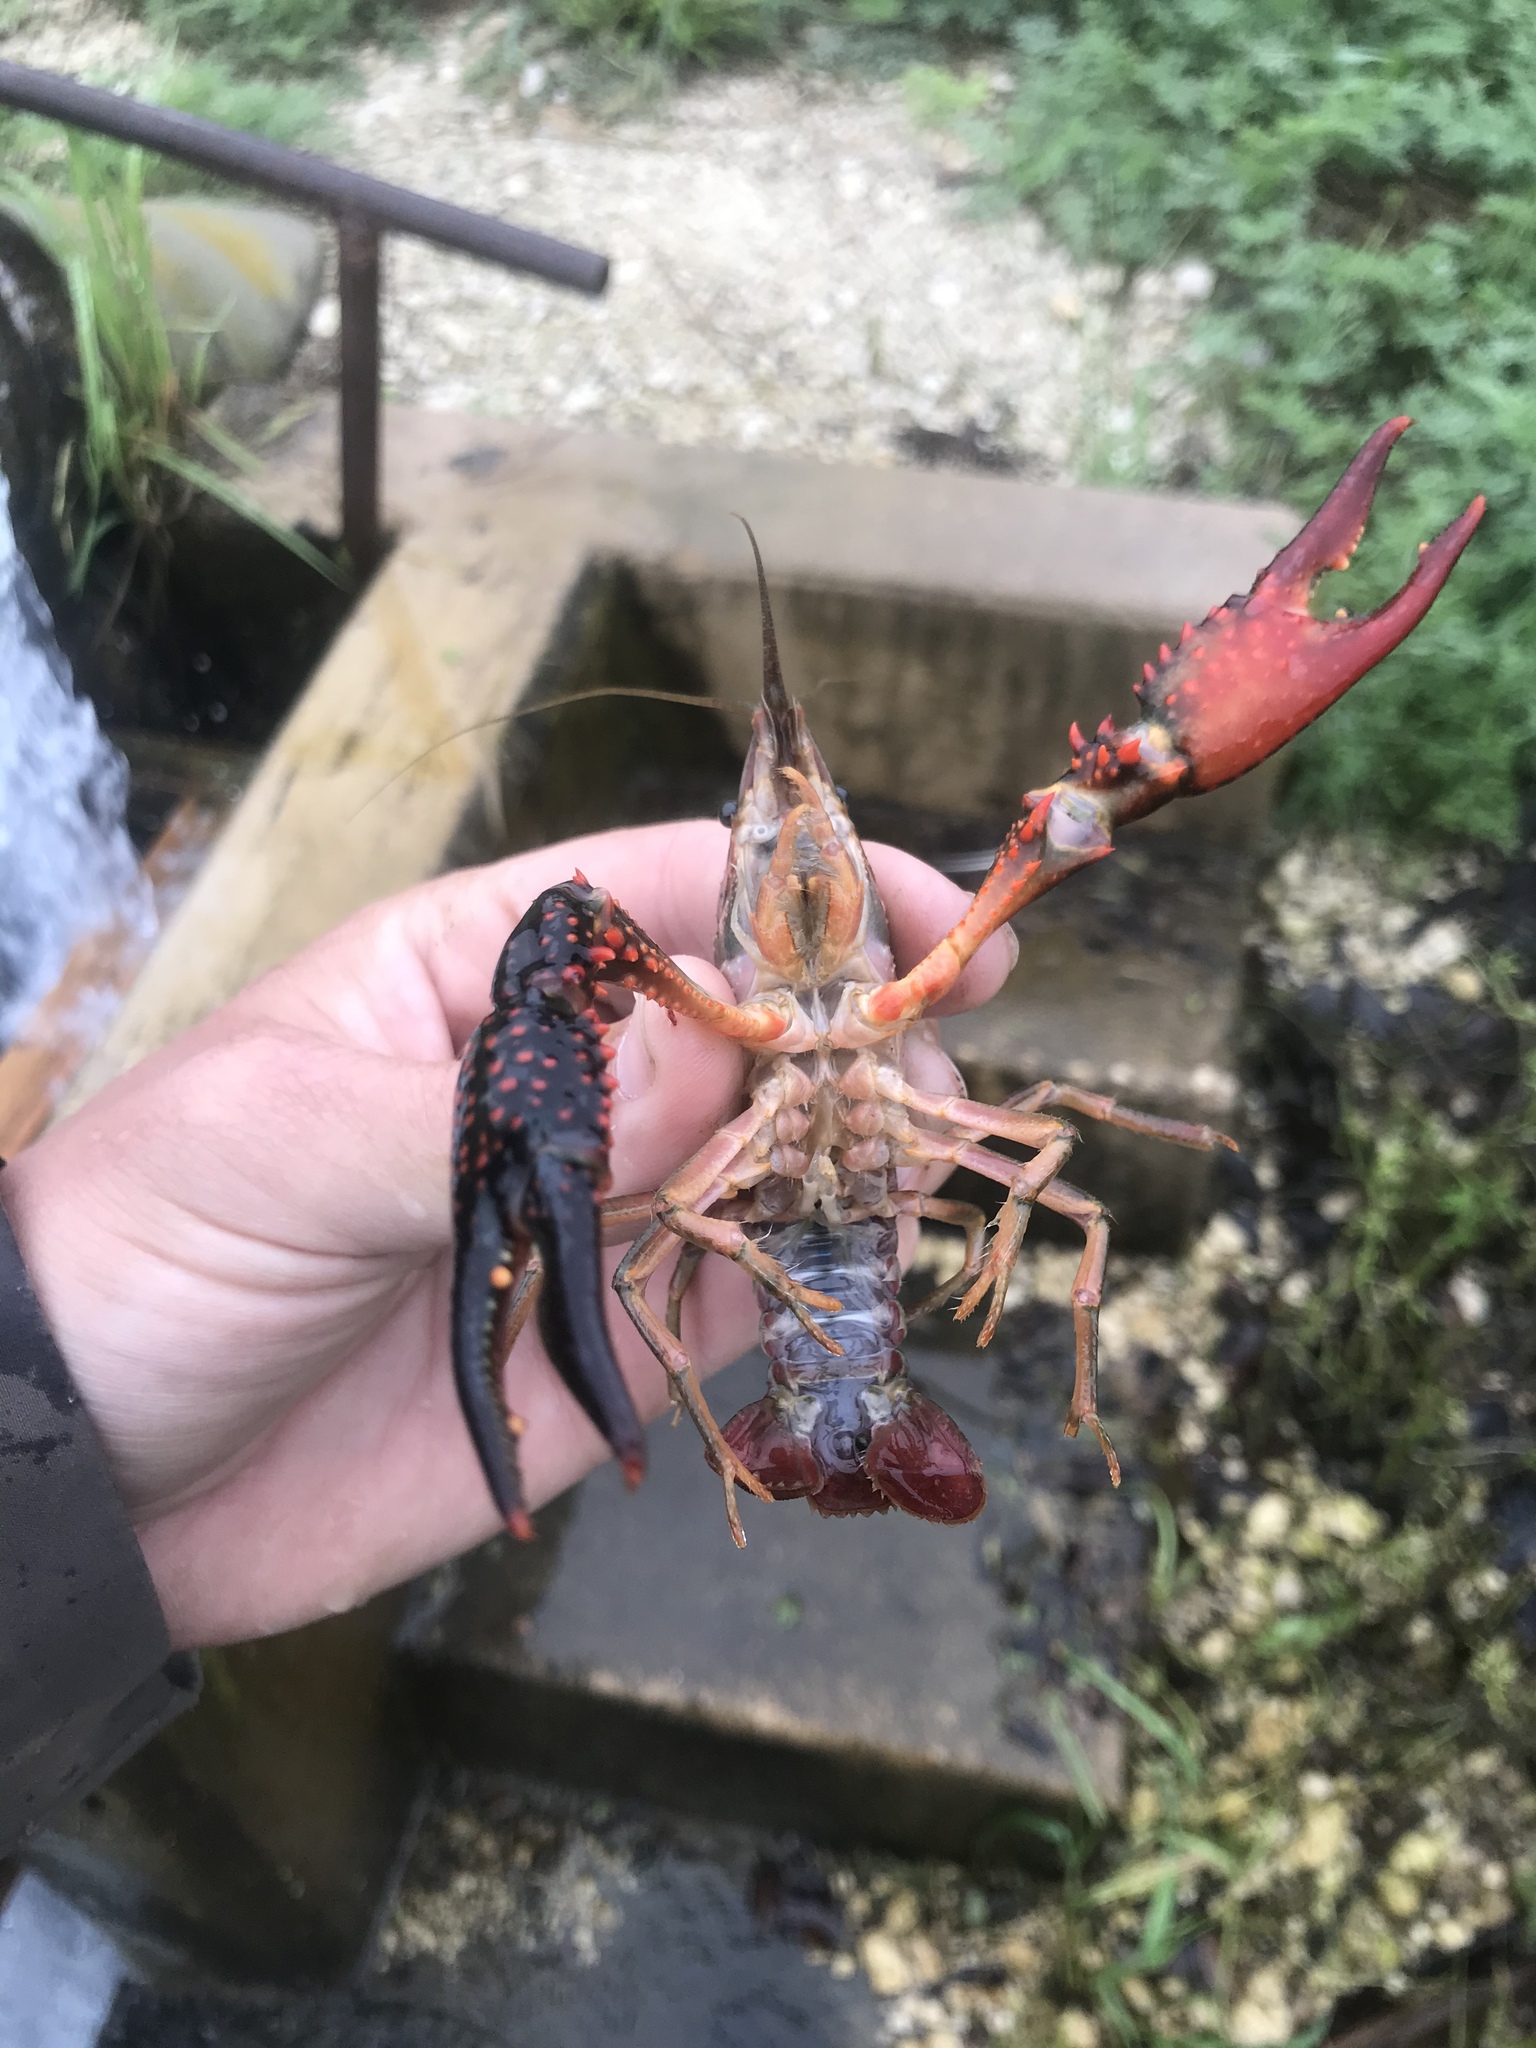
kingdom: Animalia
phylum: Arthropoda
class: Malacostraca
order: Decapoda
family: Cambaridae
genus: Procambarus
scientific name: Procambarus clarkii
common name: Red swamp crayfish
